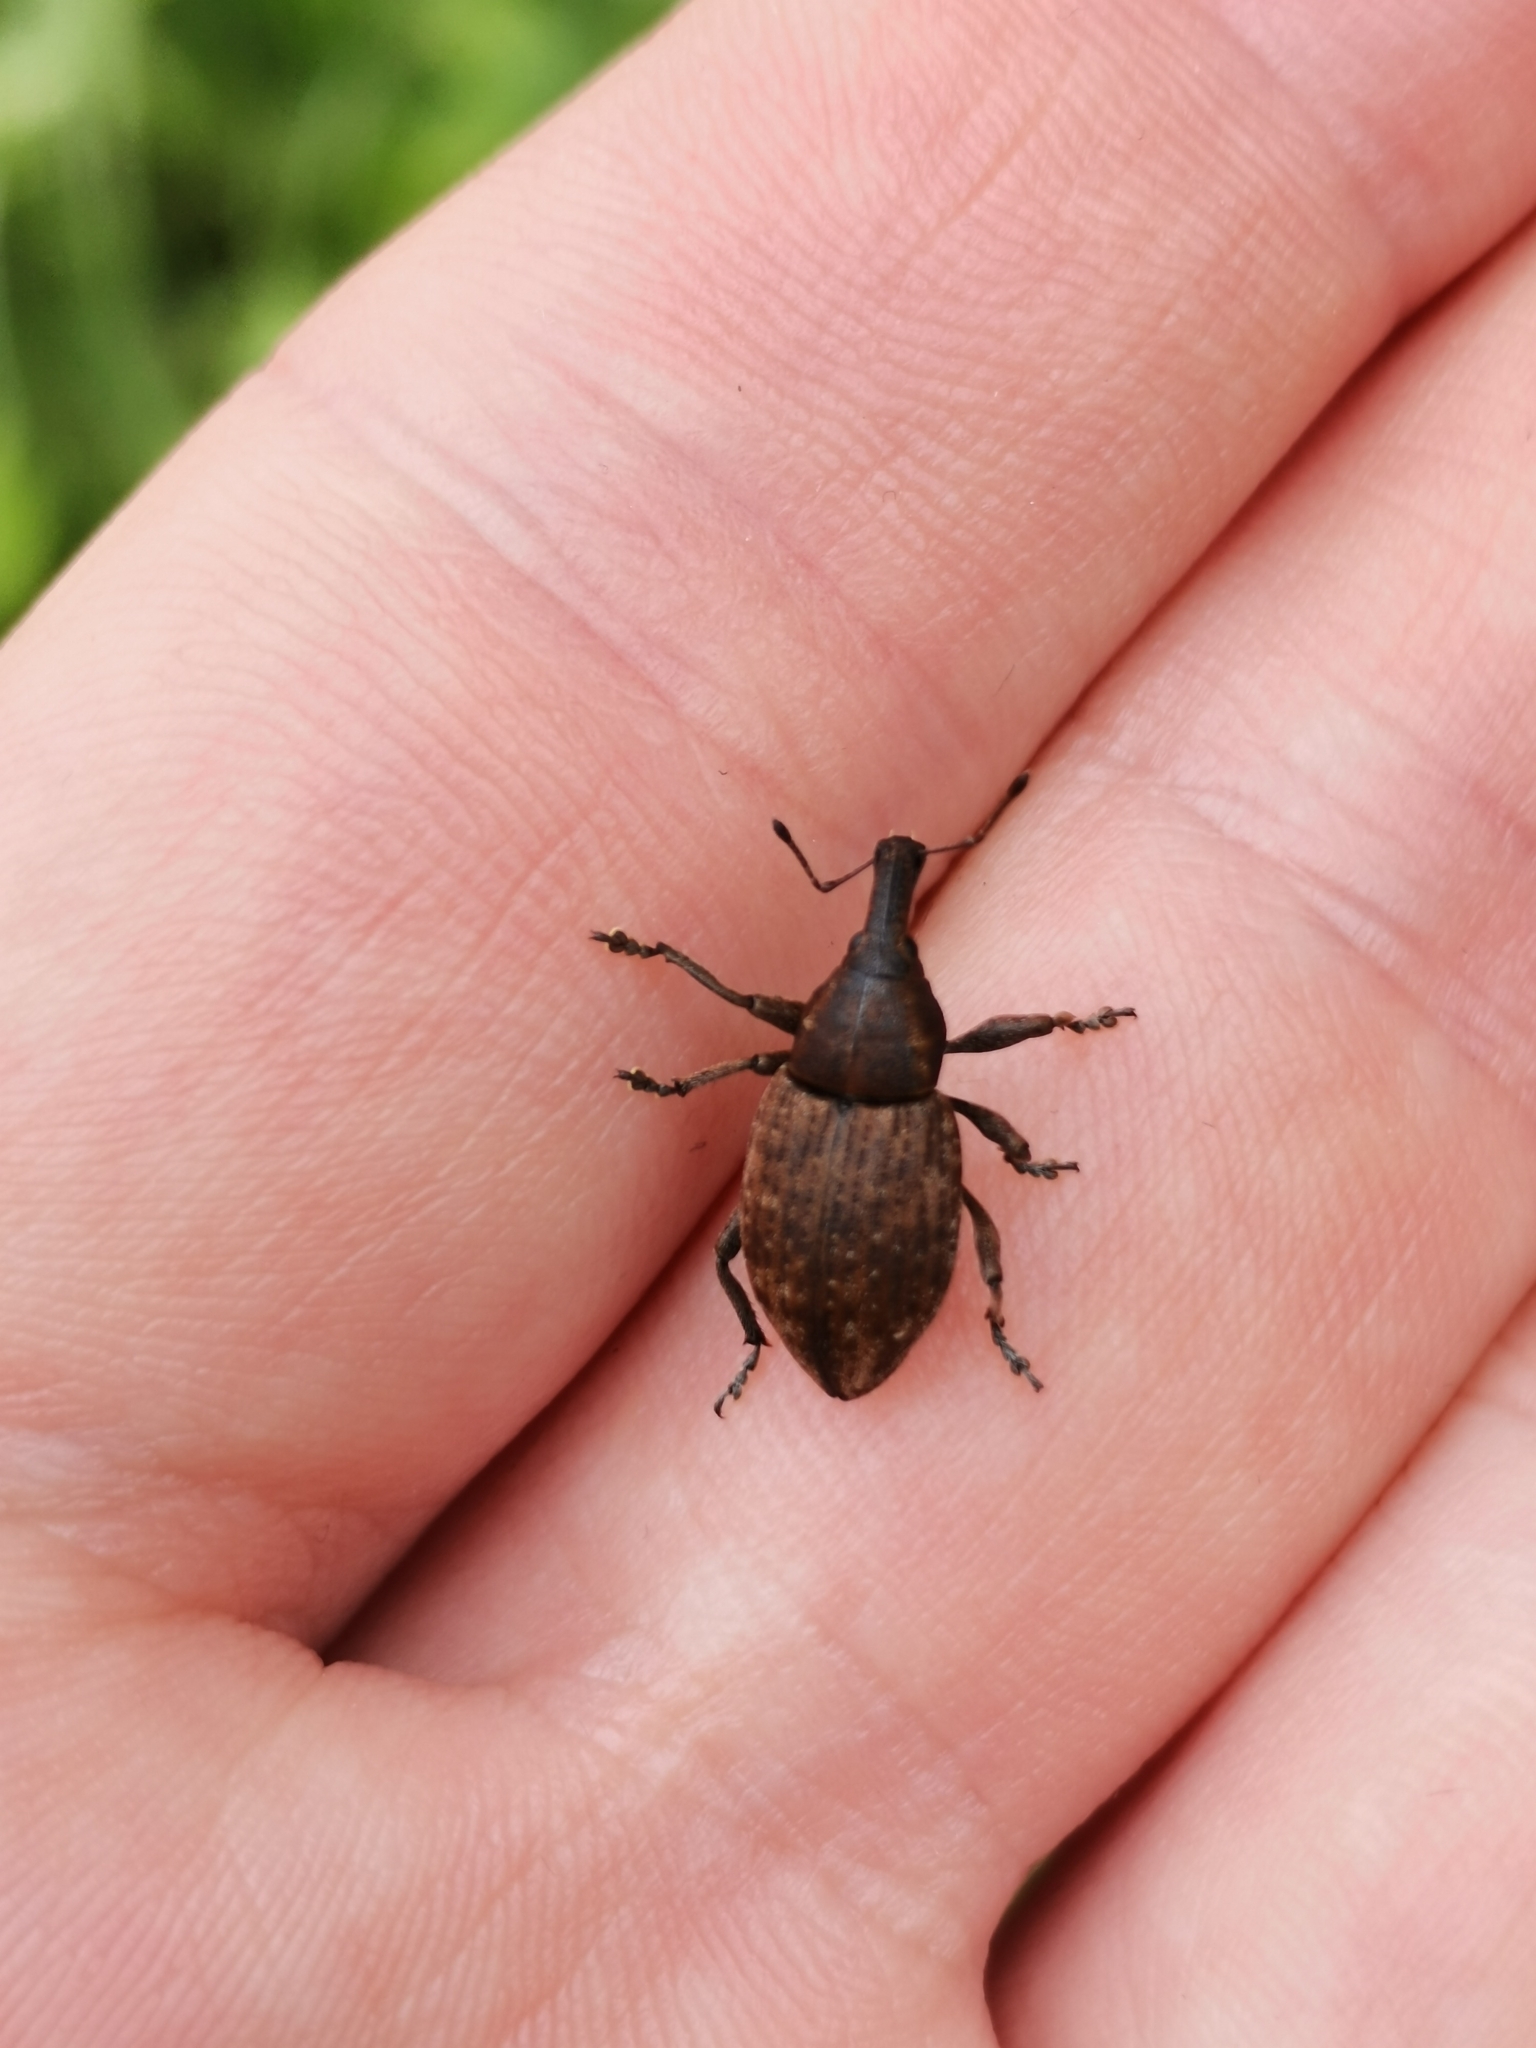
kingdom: Animalia
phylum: Arthropoda
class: Insecta
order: Coleoptera
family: Curculionidae
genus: Lepyrus
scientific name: Lepyrus capucinus
